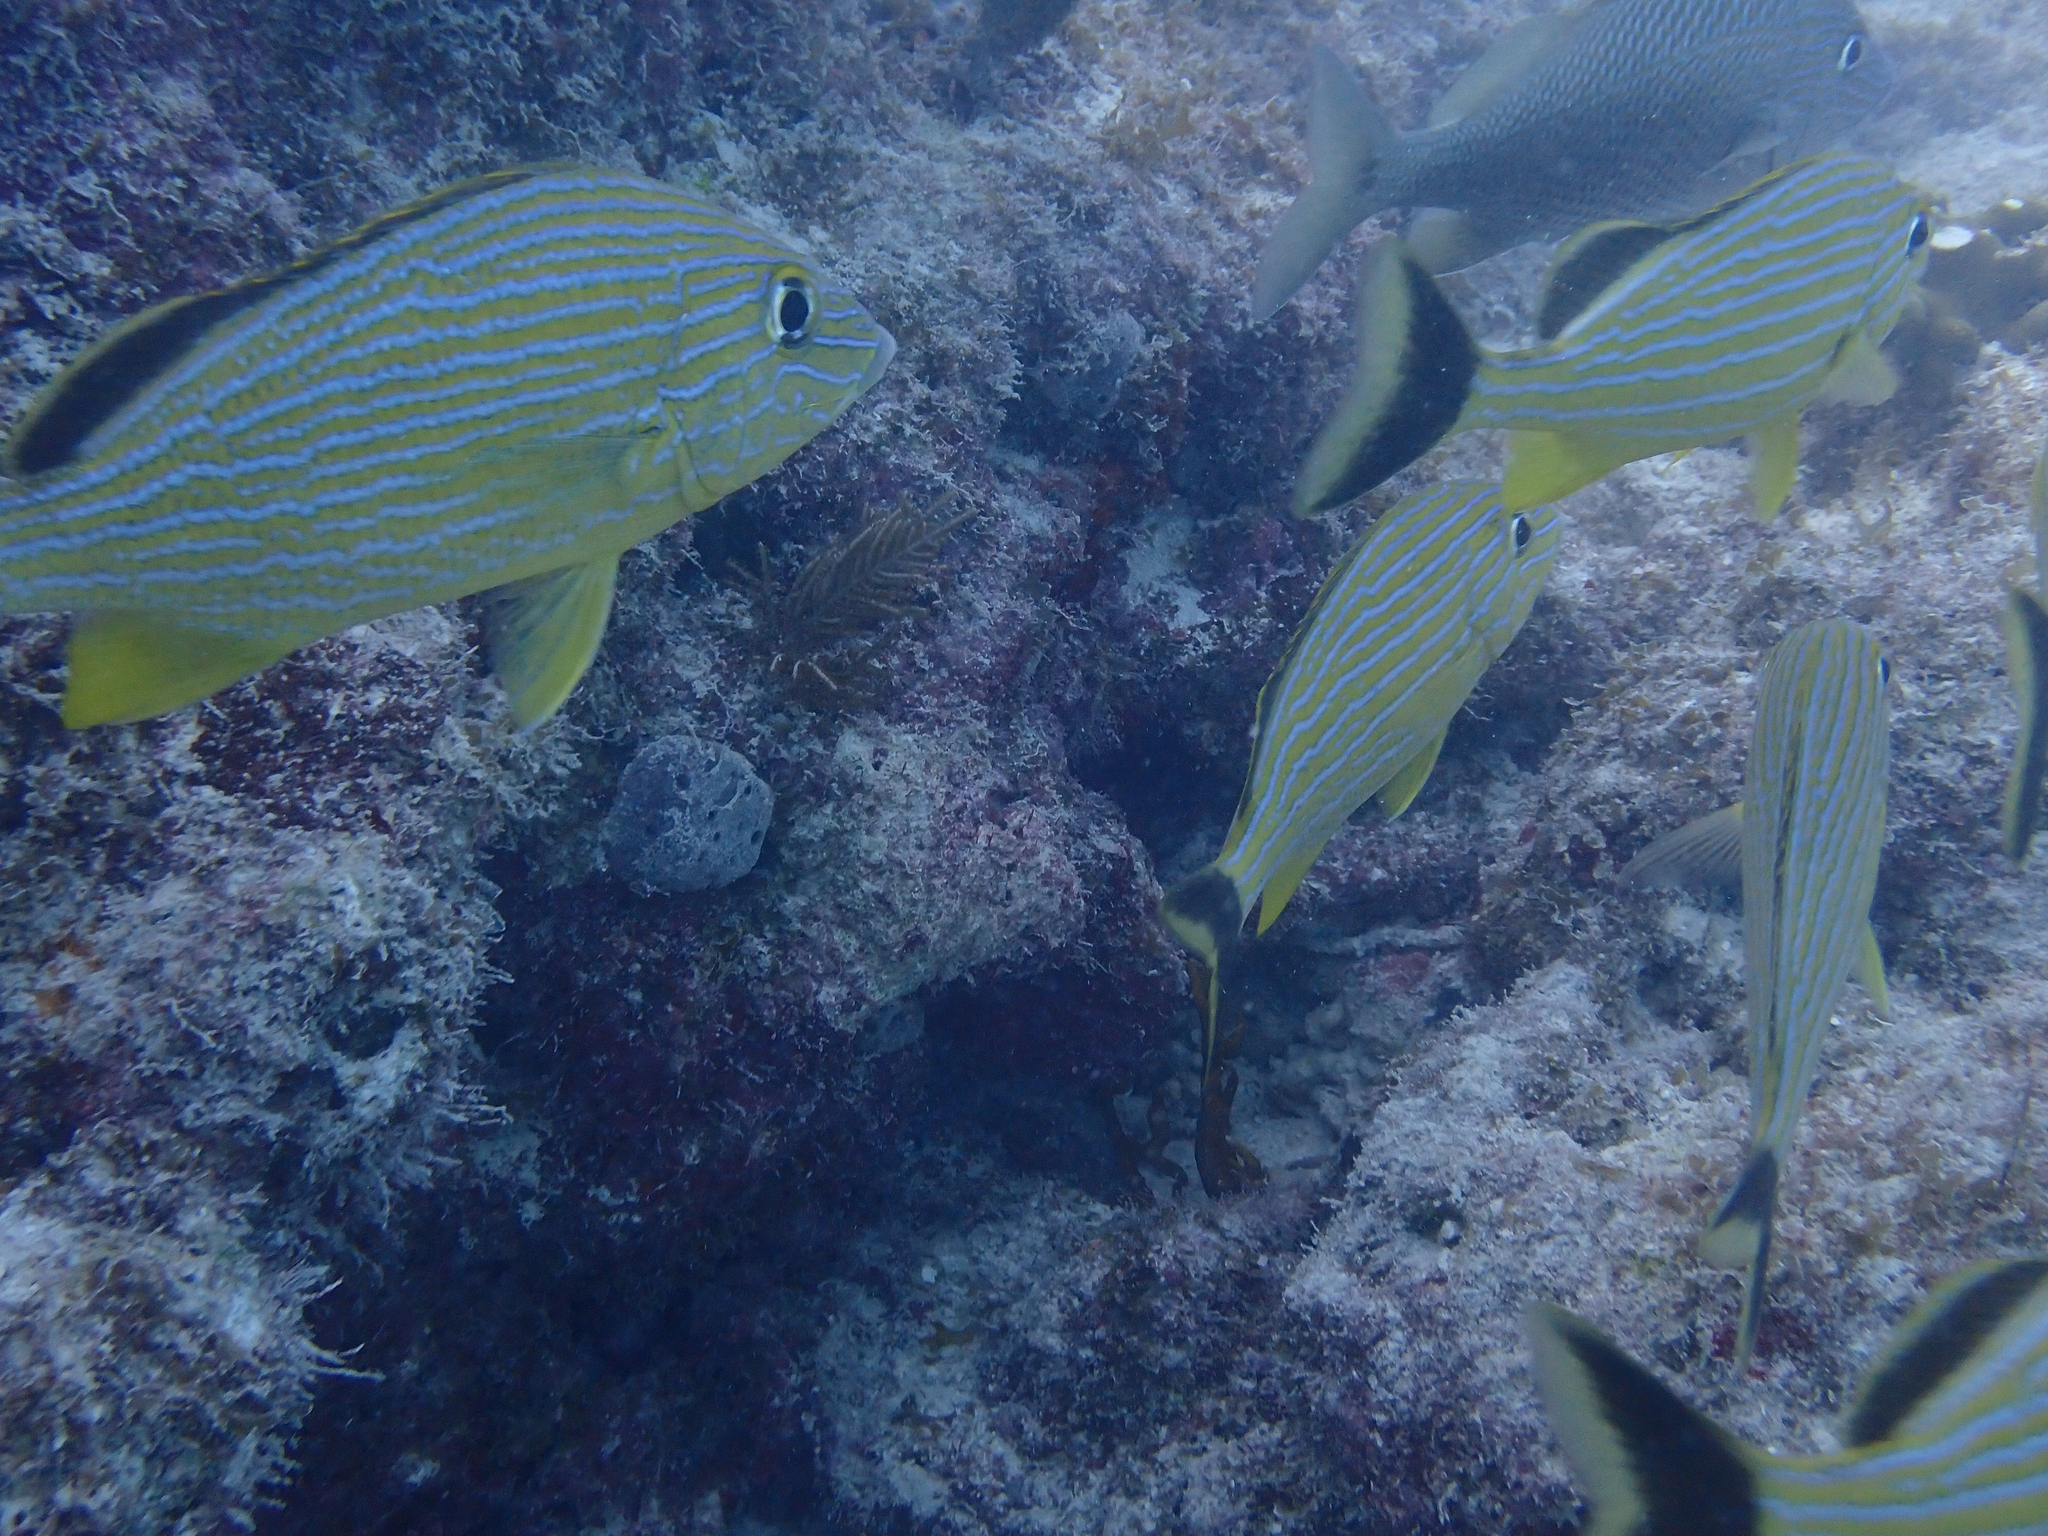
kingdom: Animalia
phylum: Chordata
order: Perciformes
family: Haemulidae
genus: Haemulon
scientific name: Haemulon sciurus
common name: Bluestriped grunt
